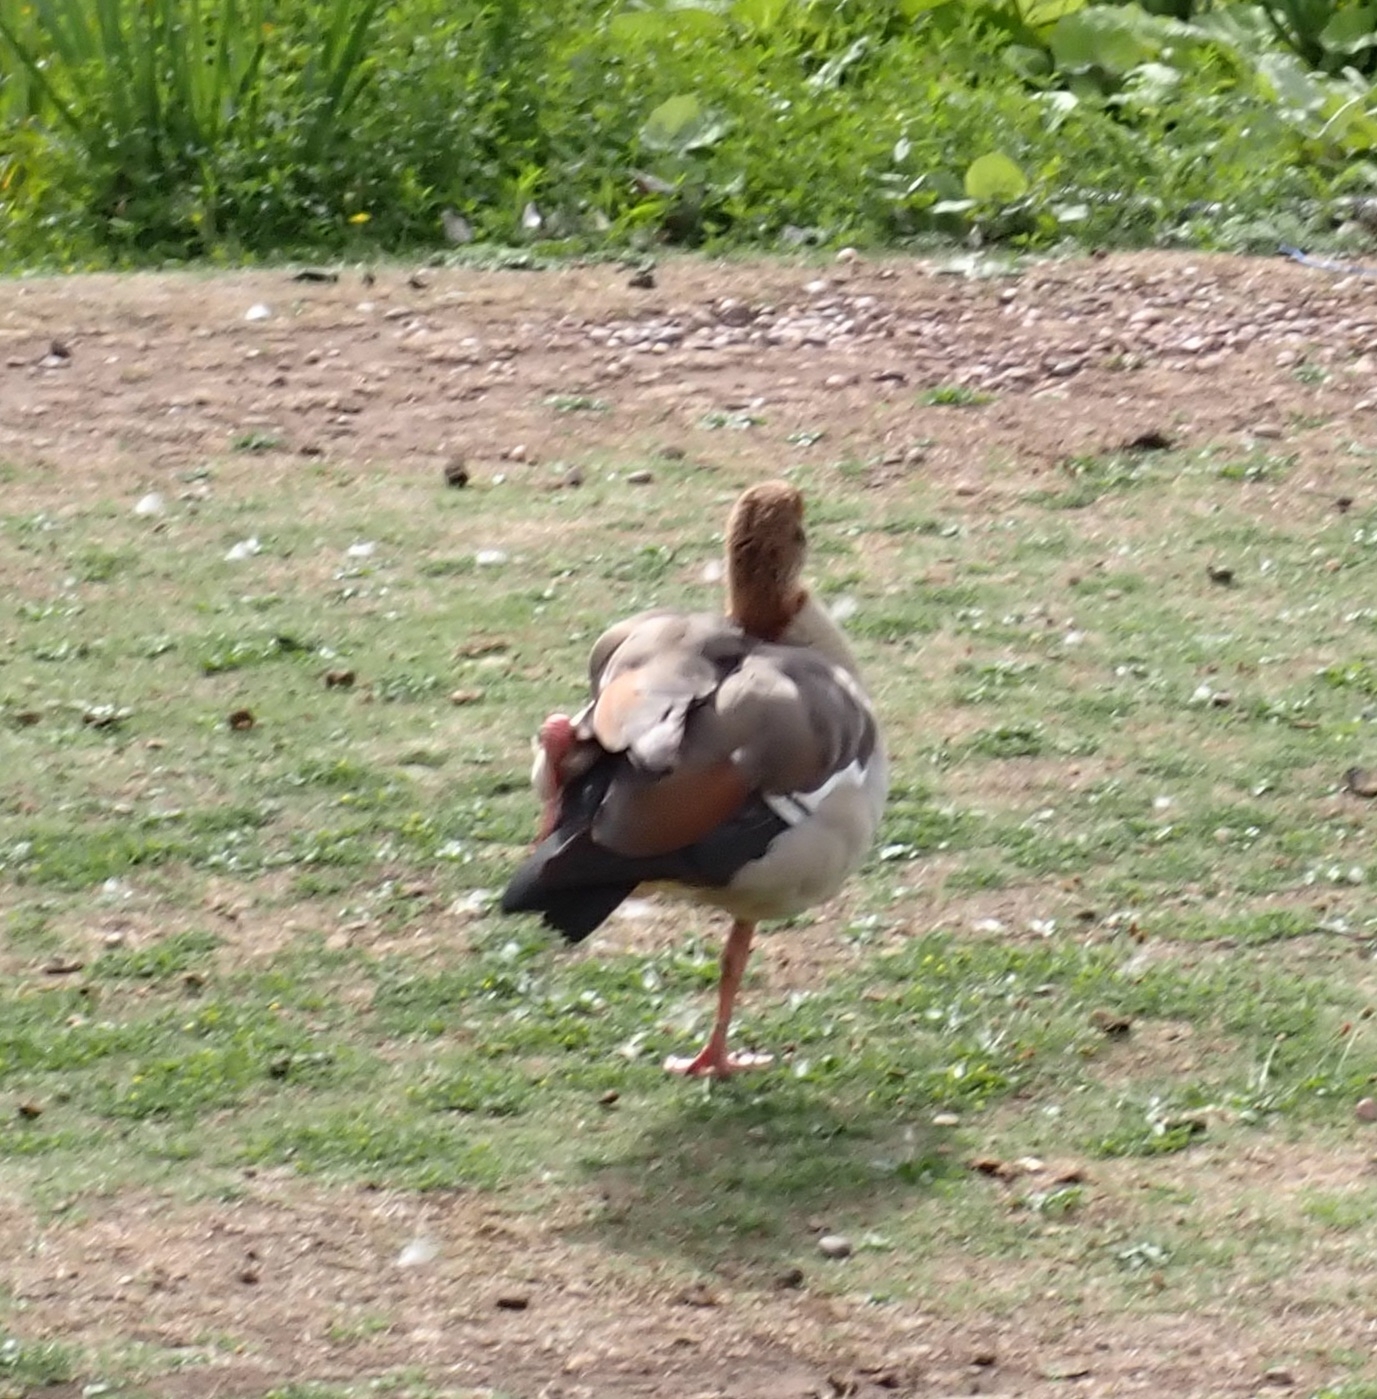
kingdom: Animalia
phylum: Chordata
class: Aves
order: Anseriformes
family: Anatidae
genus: Alopochen
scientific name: Alopochen aegyptiaca
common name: Egyptian goose
